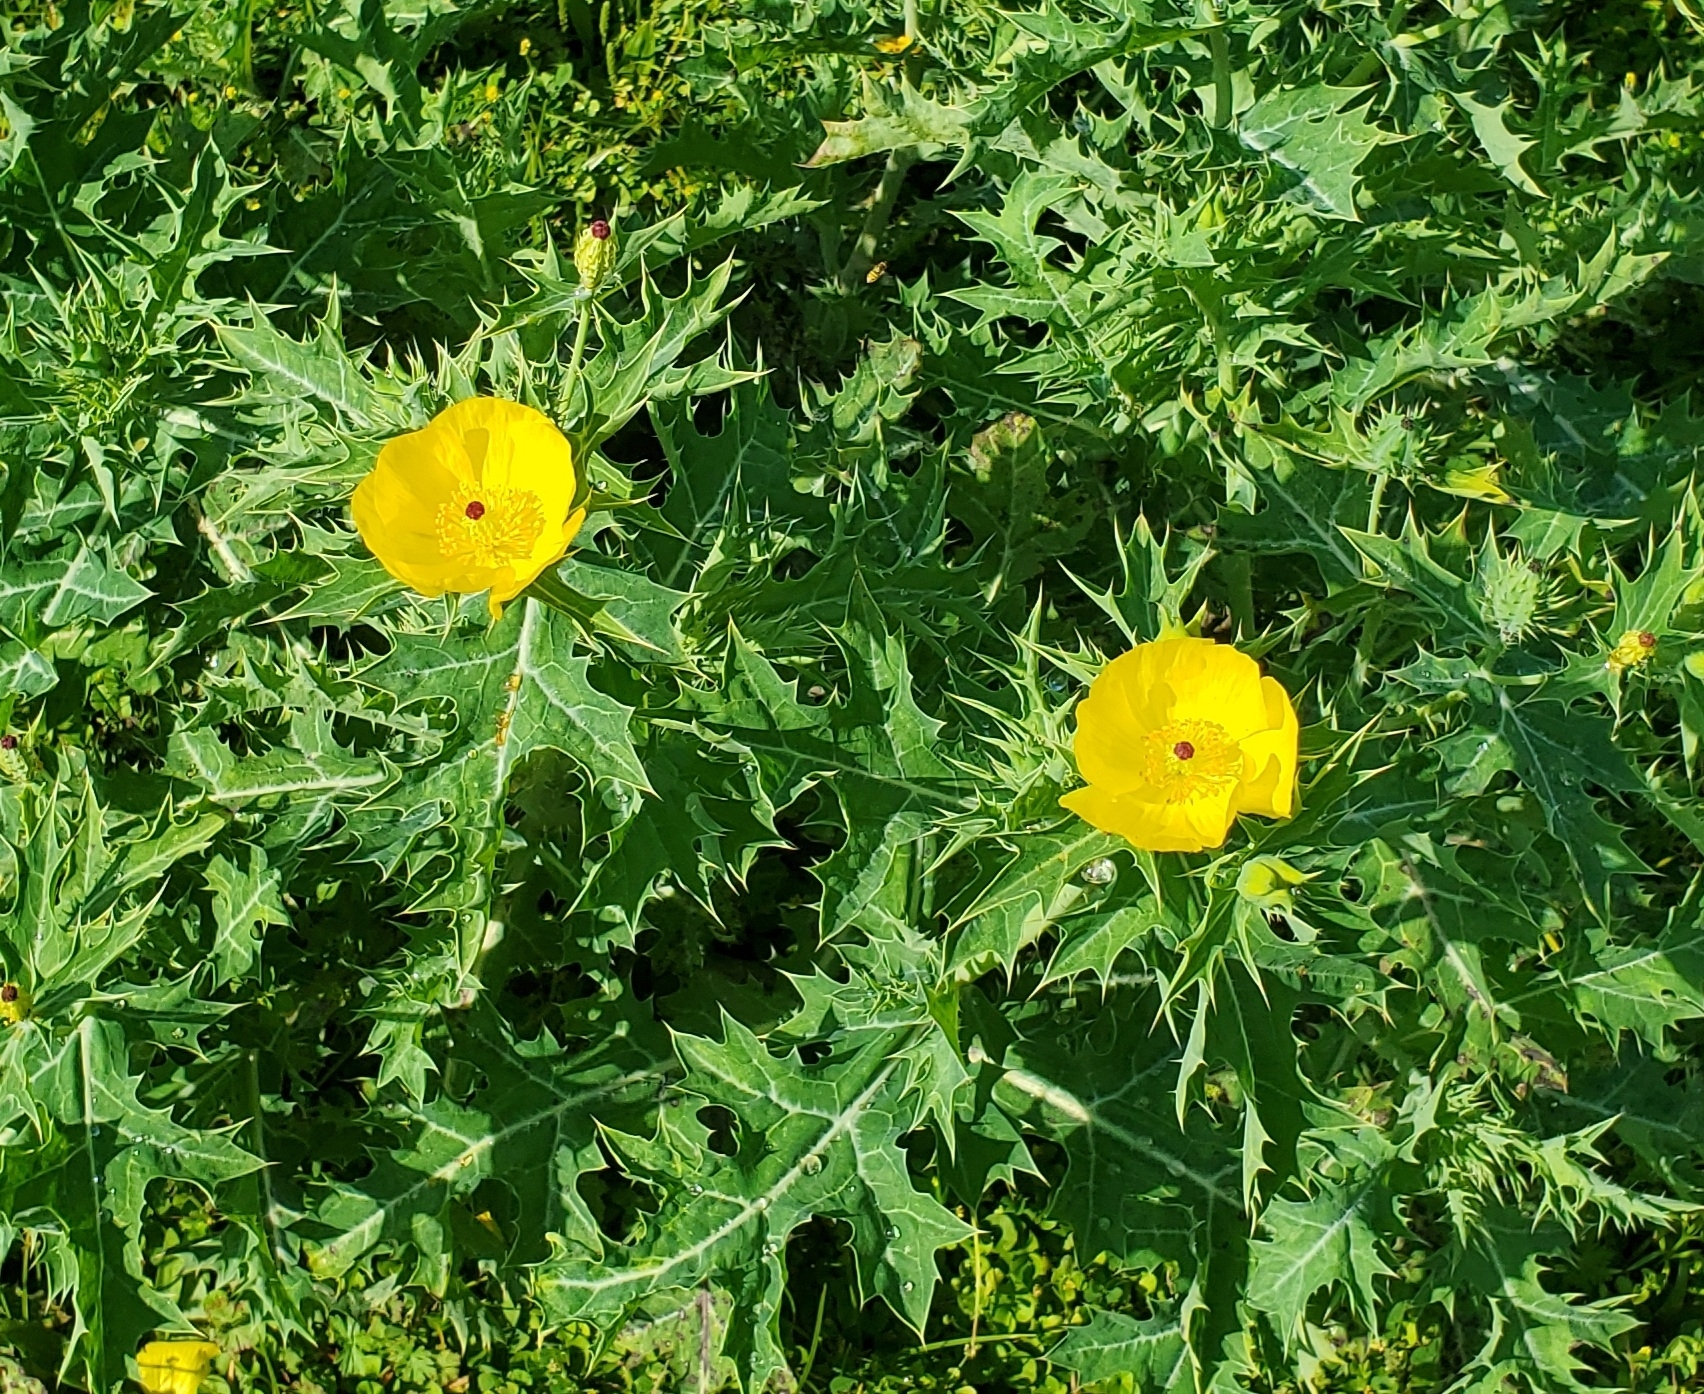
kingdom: Plantae
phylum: Tracheophyta
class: Magnoliopsida
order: Ranunculales
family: Papaveraceae
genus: Argemone
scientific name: Argemone mexicana
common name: Mexican poppy
